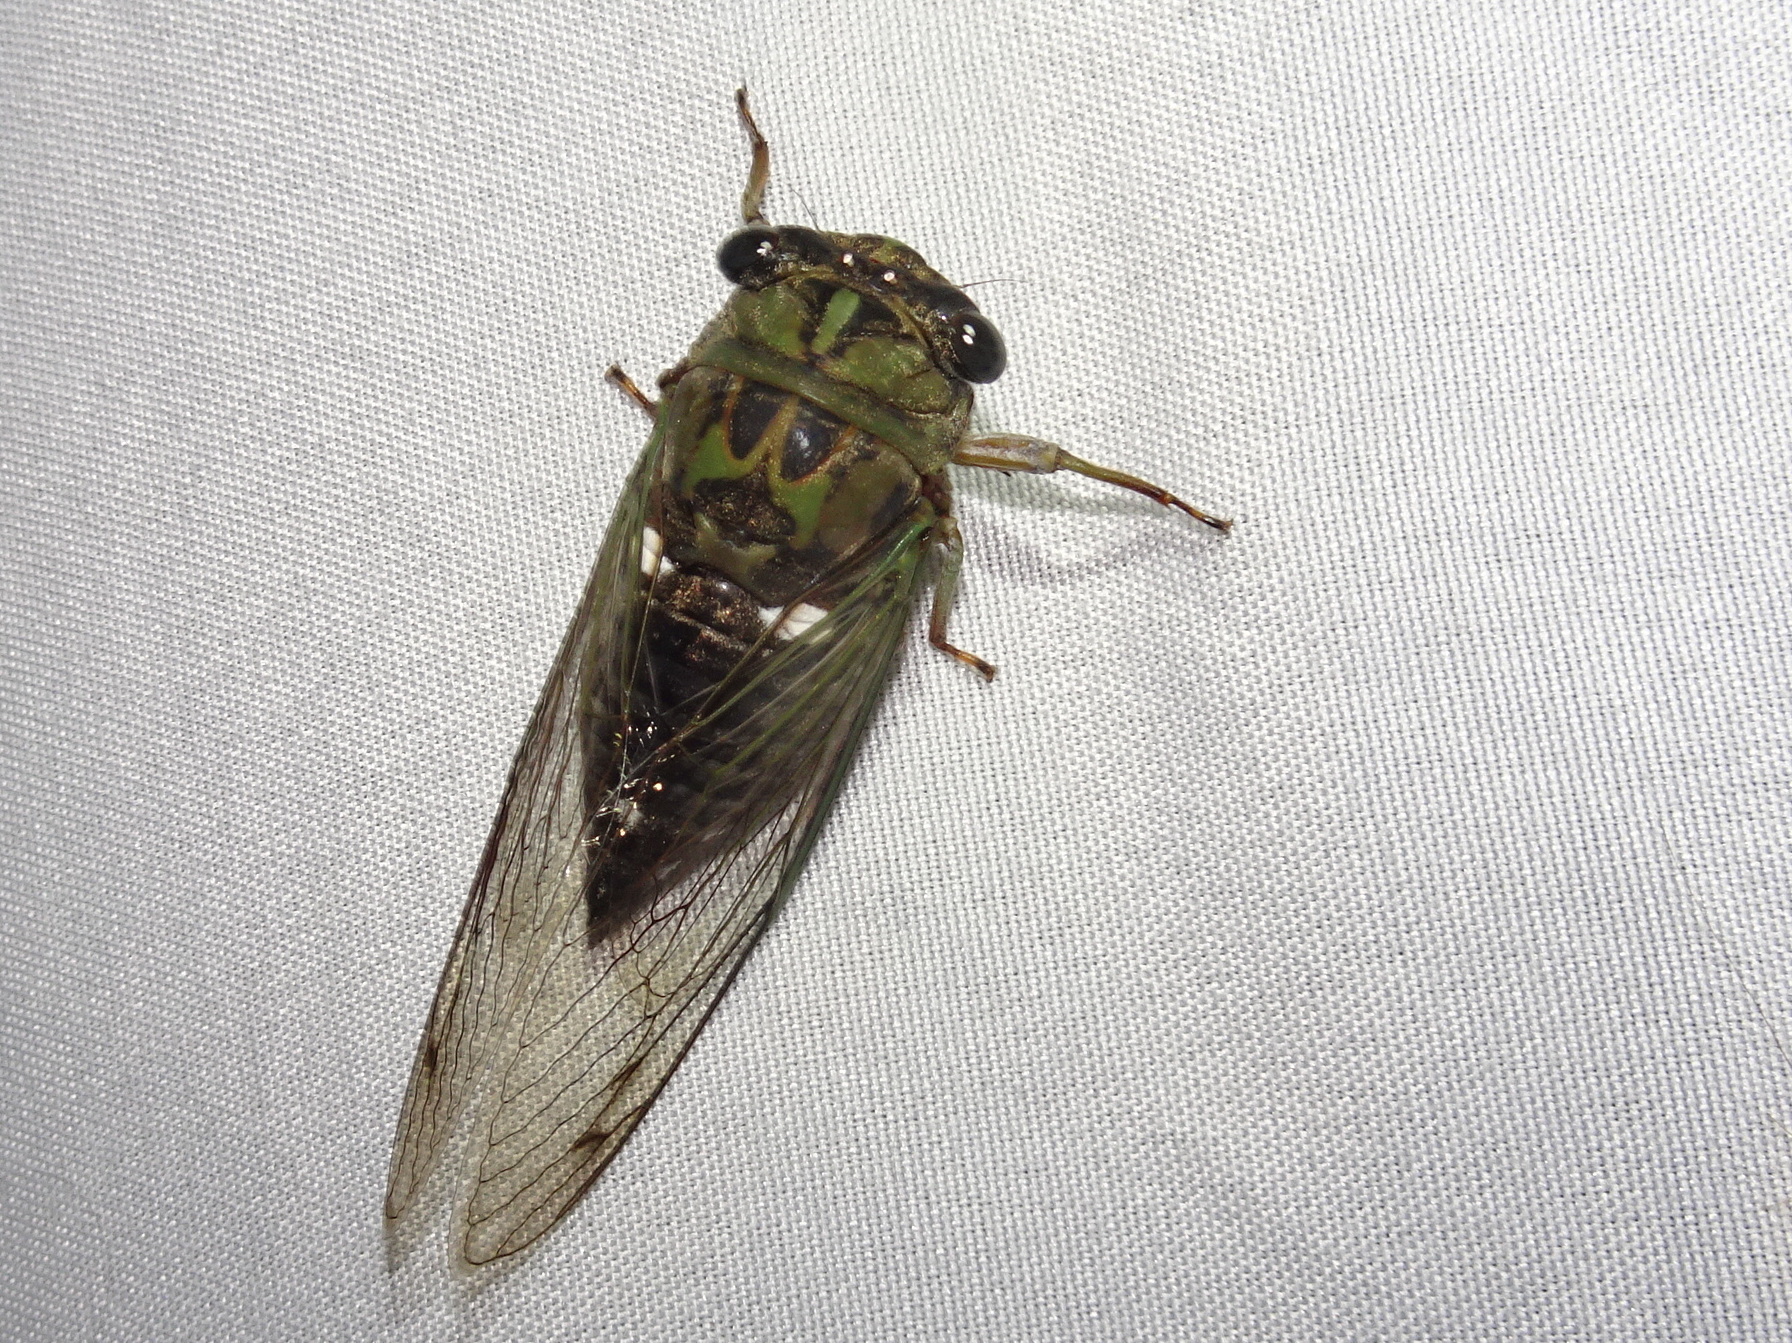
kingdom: Animalia
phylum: Arthropoda
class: Insecta
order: Hemiptera
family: Cicadidae
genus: Neotibicen
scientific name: Neotibicen pruinosus
